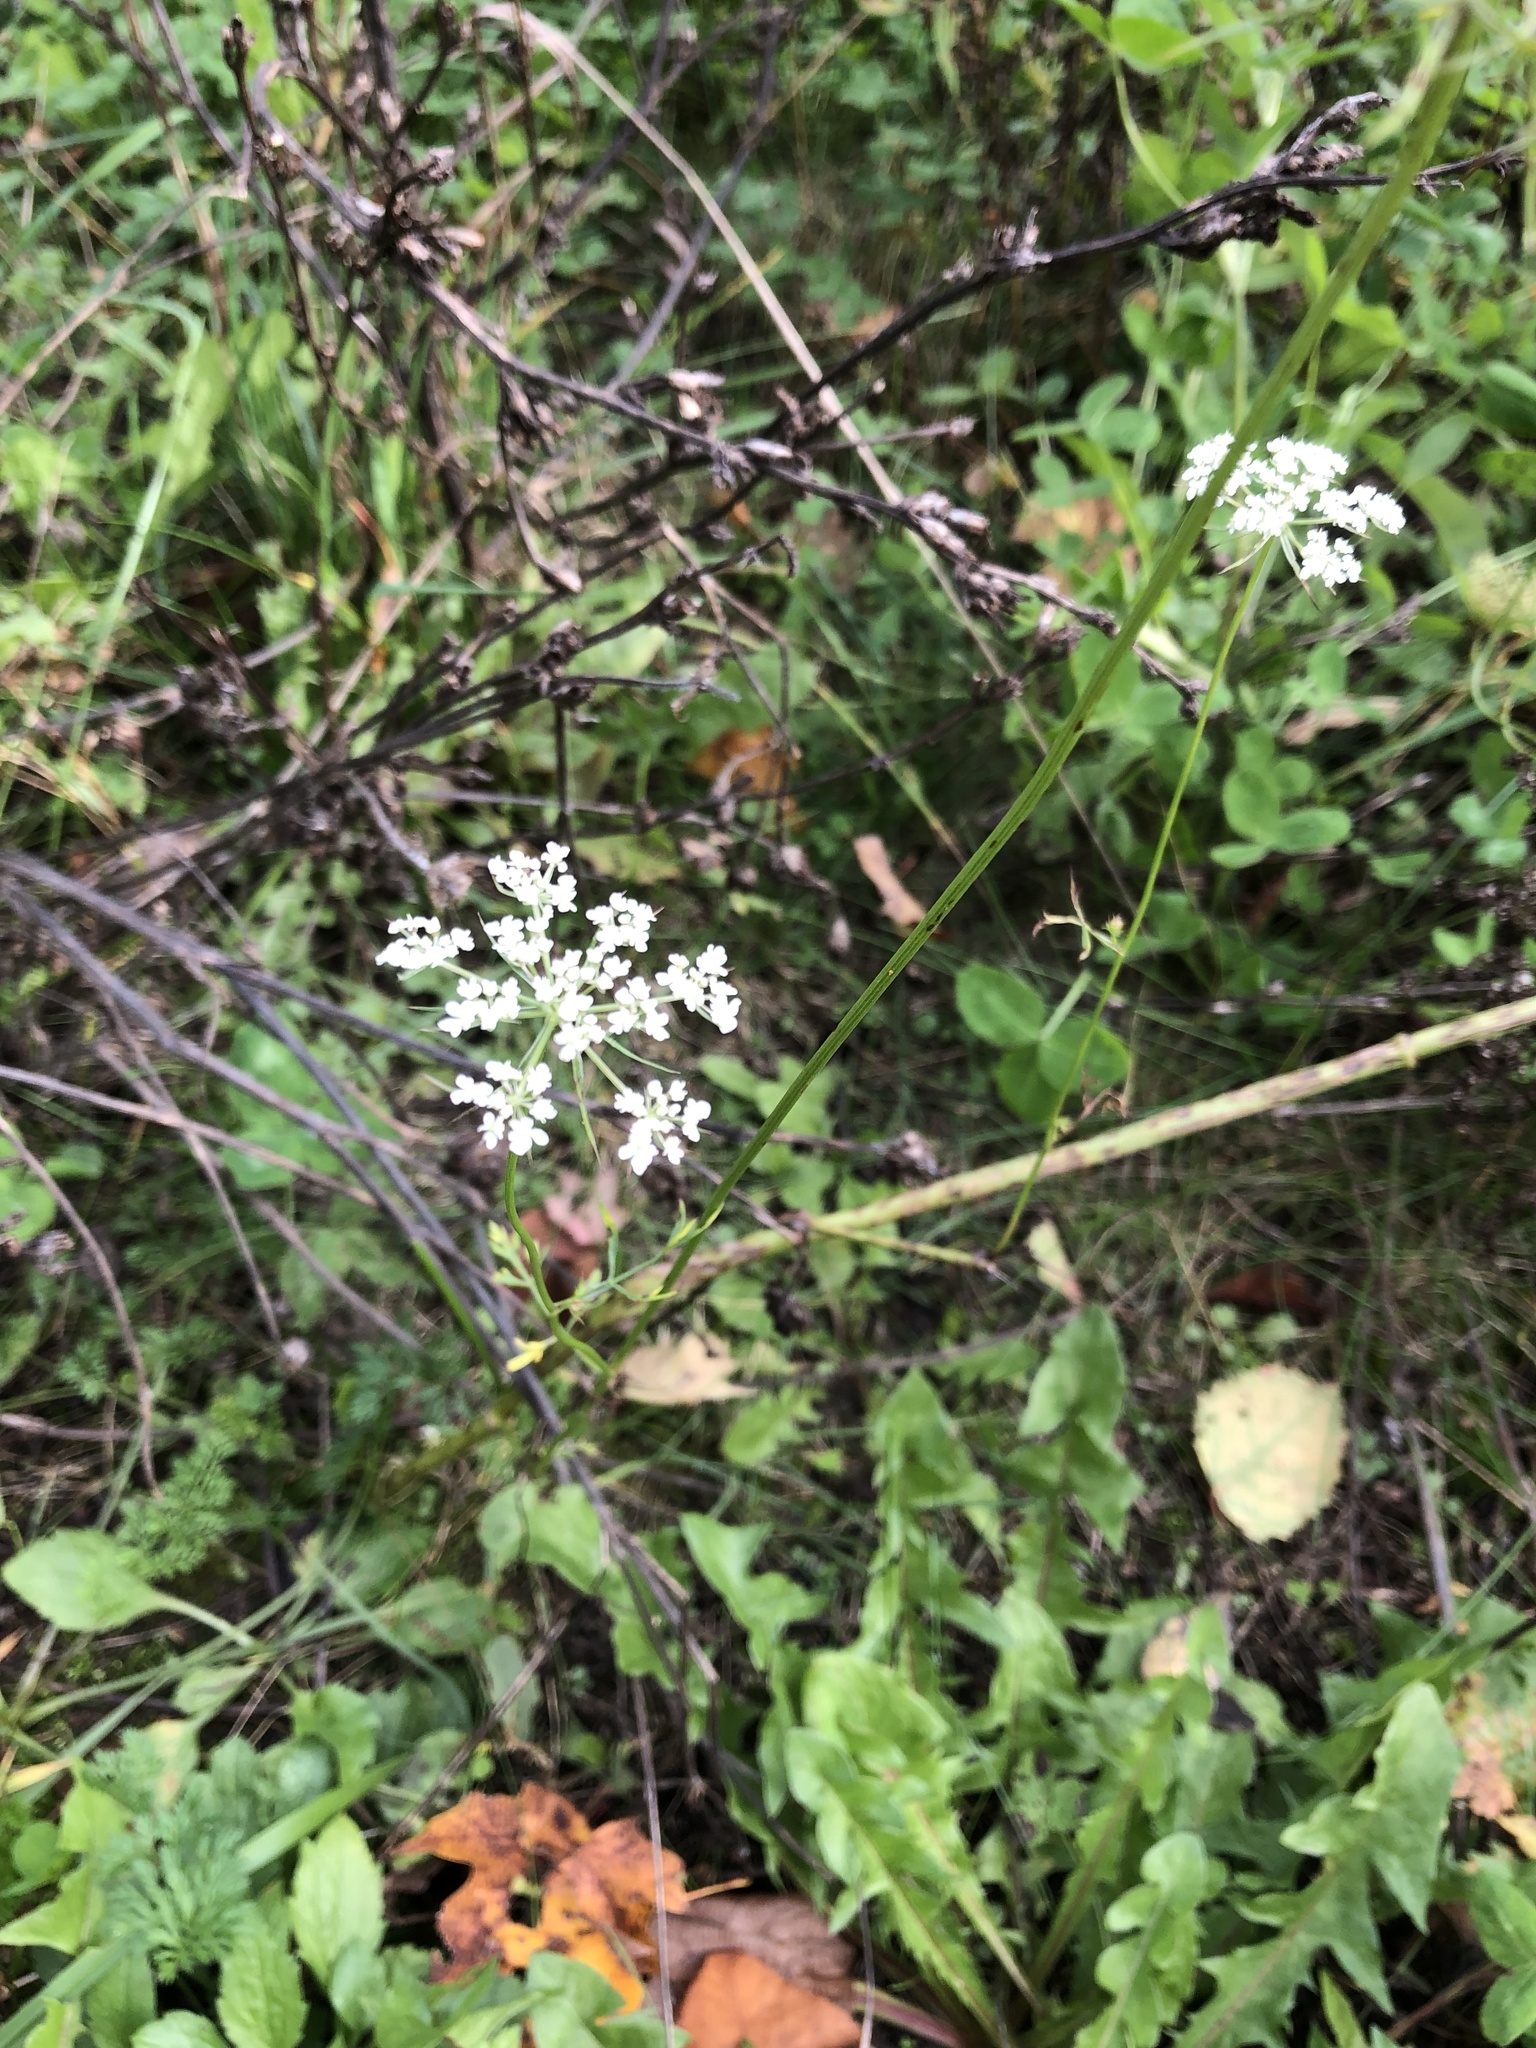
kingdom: Plantae
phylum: Tracheophyta
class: Magnoliopsida
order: Apiales
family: Apiaceae
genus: Daucus
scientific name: Daucus carota
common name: Wild carrot
